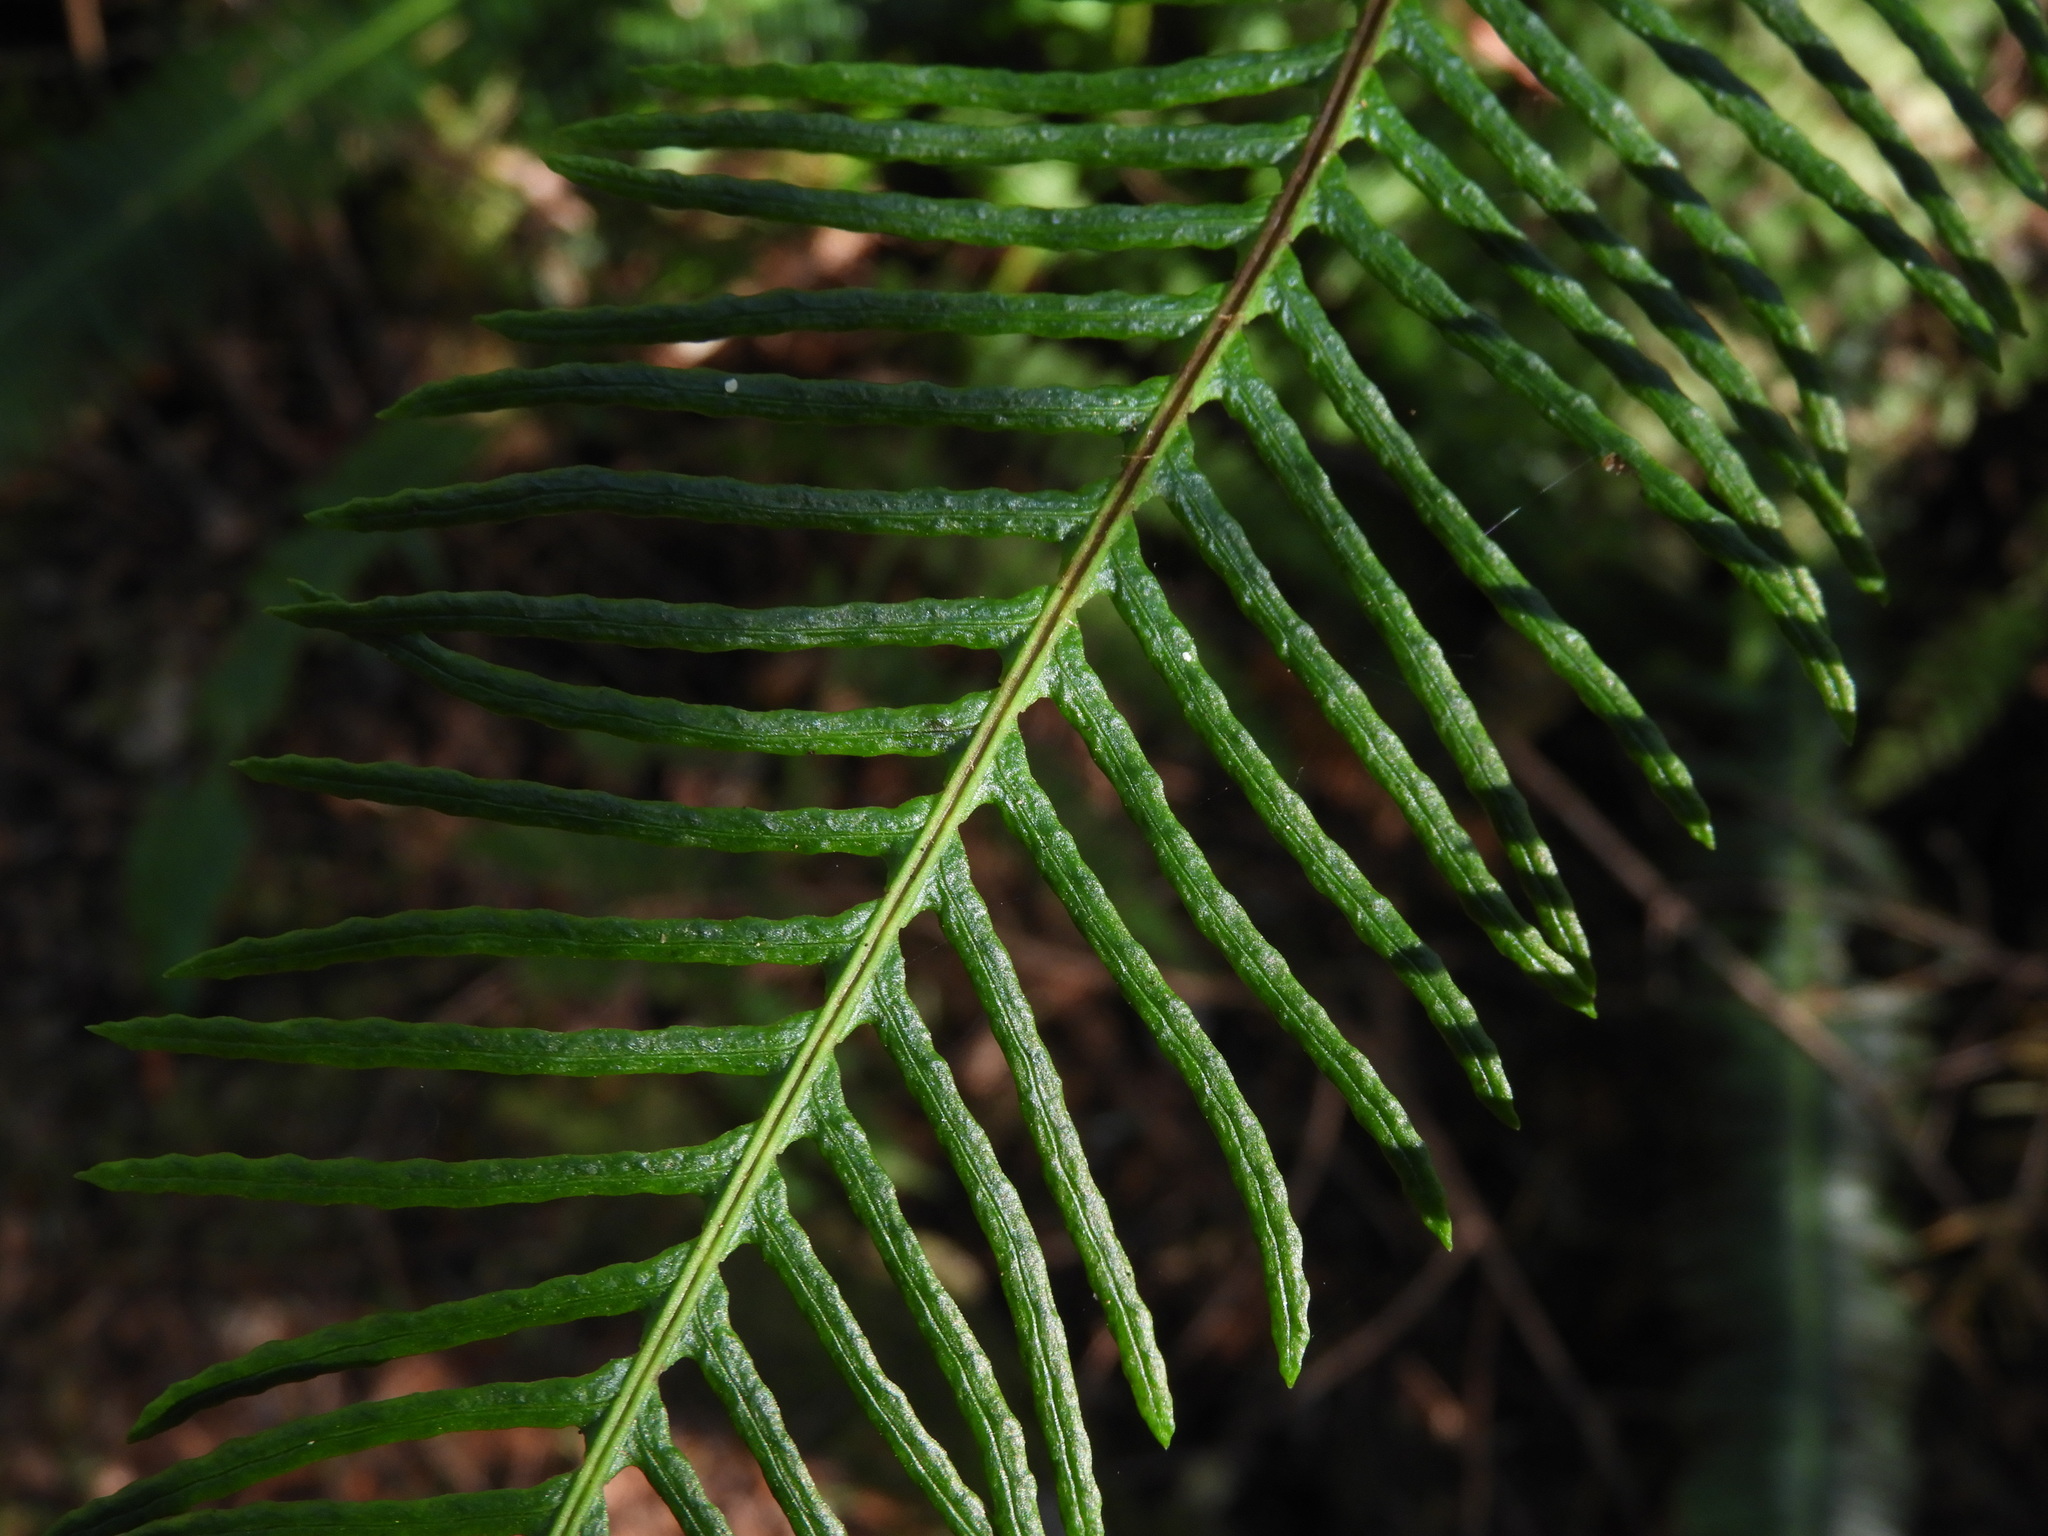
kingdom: Plantae
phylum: Tracheophyta
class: Polypodiopsida
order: Polypodiales
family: Blechnaceae
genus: Struthiopteris
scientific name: Struthiopteris spicant
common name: Deer fern
